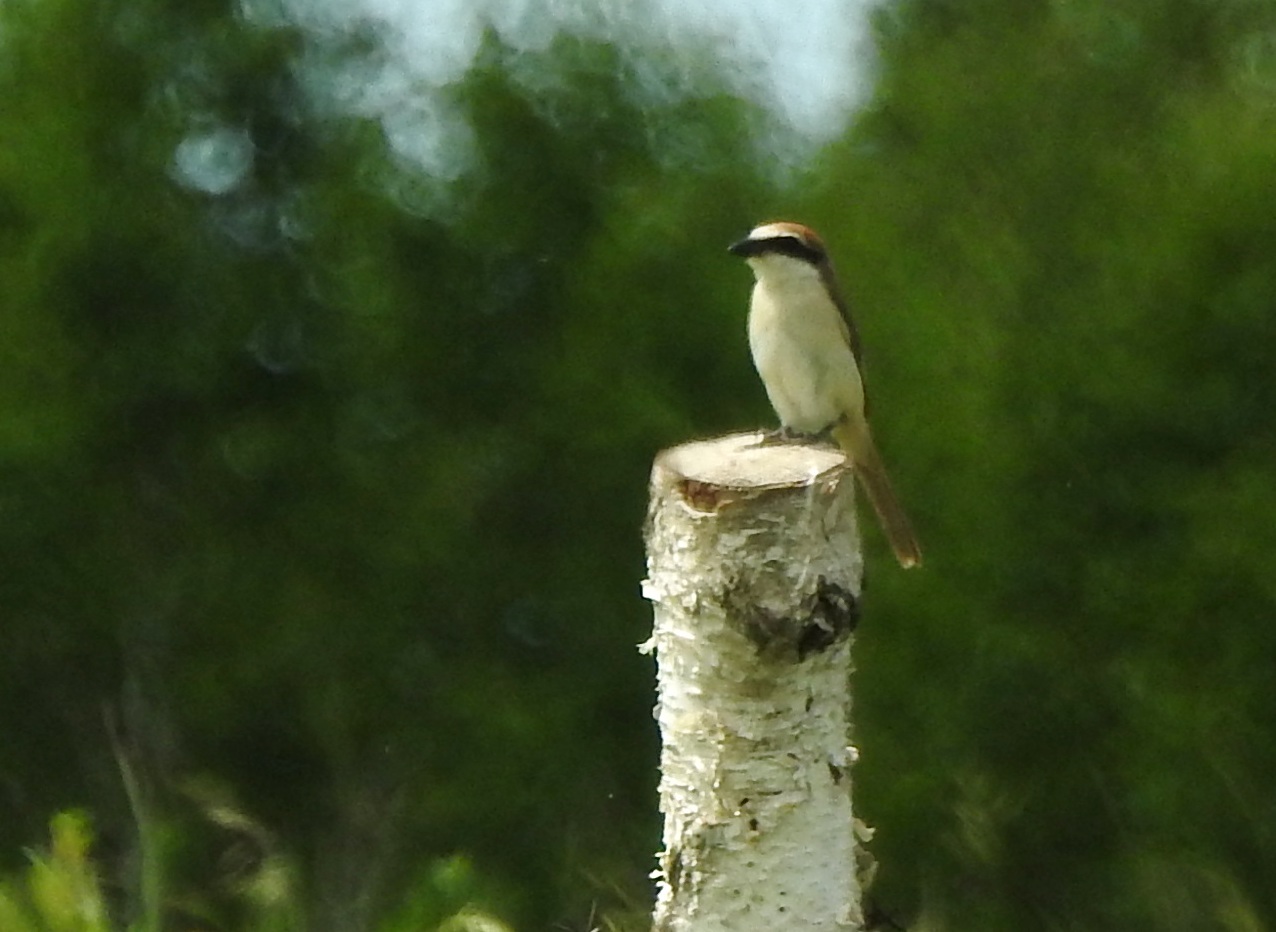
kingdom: Animalia
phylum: Chordata
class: Aves
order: Passeriformes
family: Laniidae
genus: Lanius
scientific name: Lanius cristatus
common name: Brown shrike
